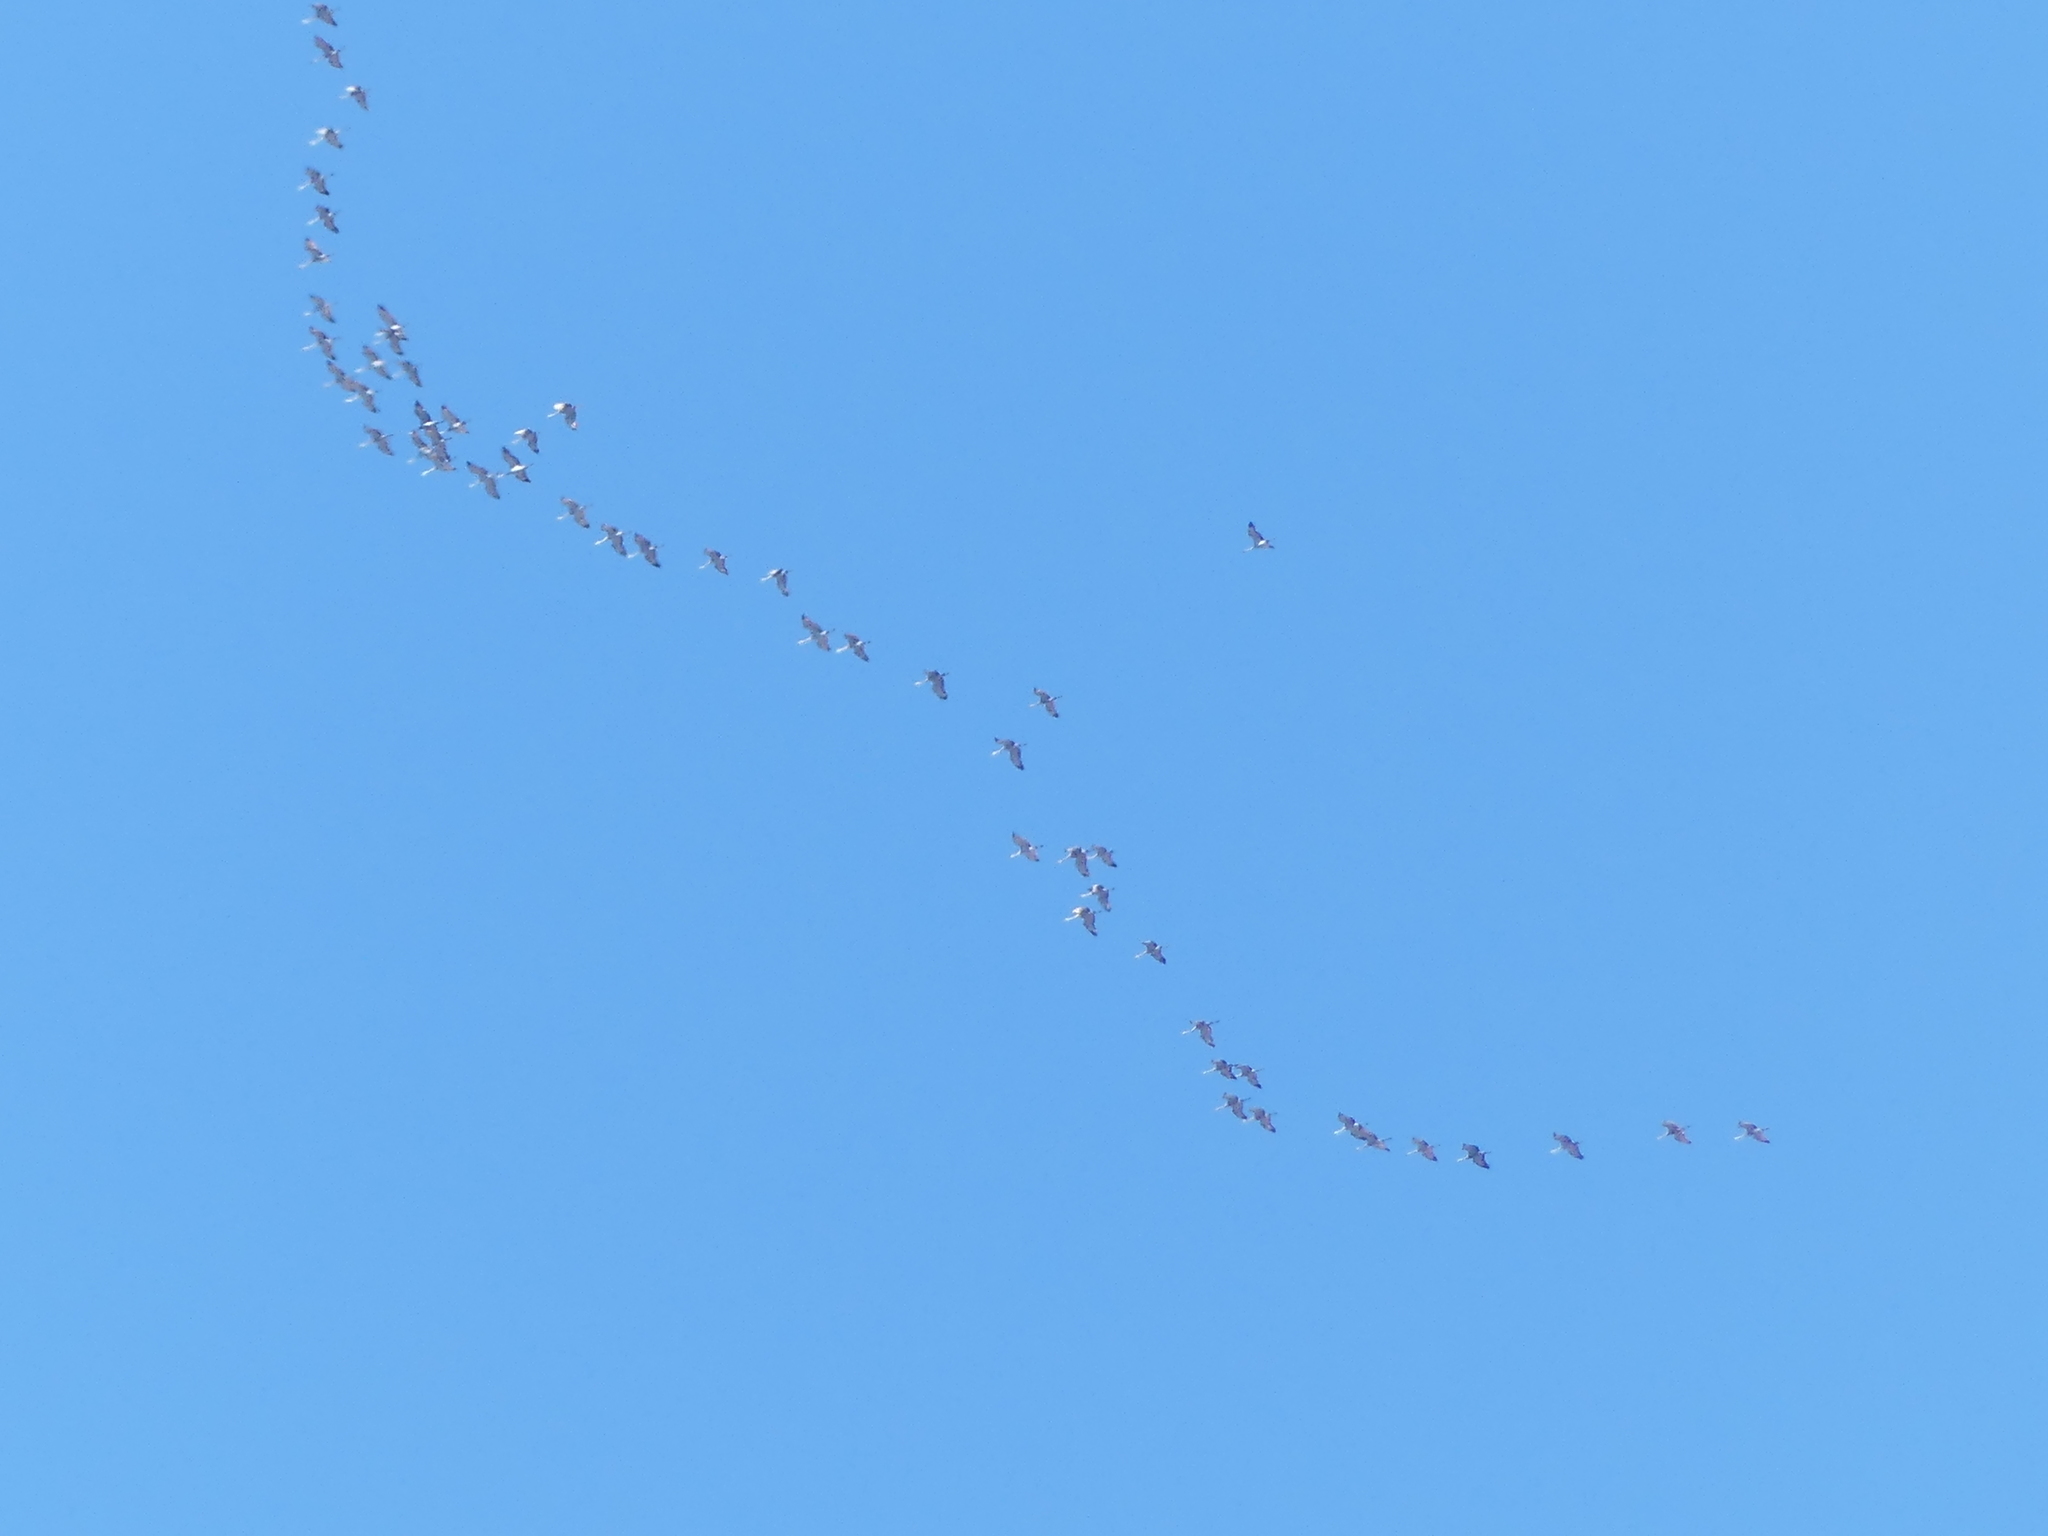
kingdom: Animalia
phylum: Chordata
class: Aves
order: Gruiformes
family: Gruidae
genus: Grus
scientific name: Grus canadensis
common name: Sandhill crane
